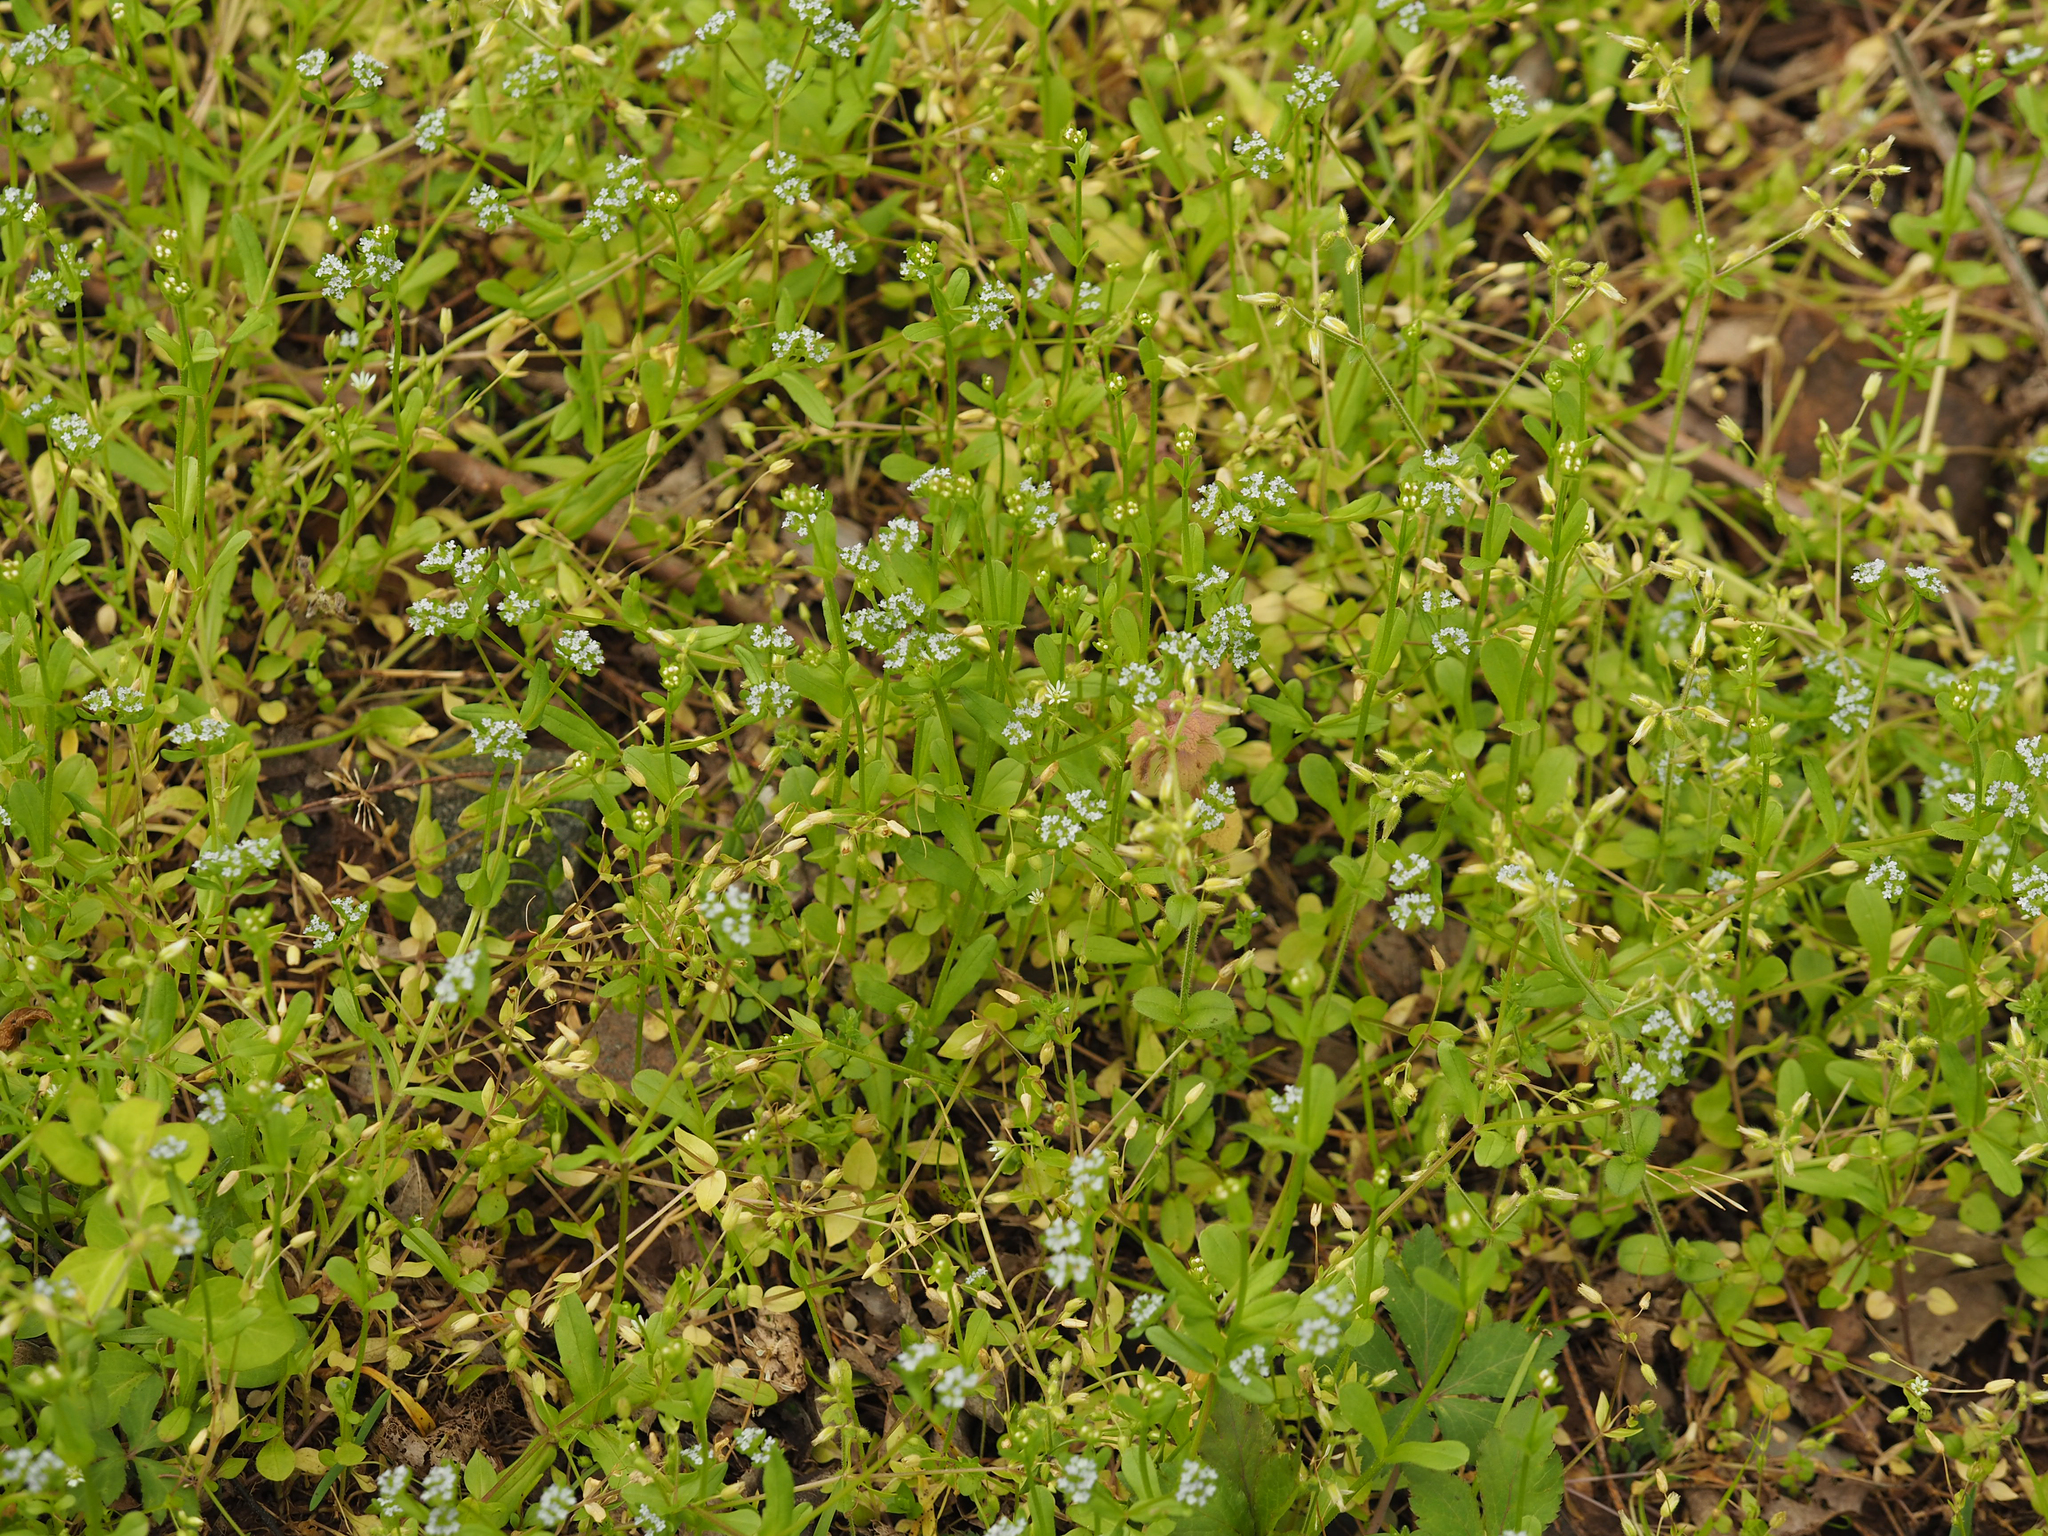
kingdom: Plantae
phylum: Tracheophyta
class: Magnoliopsida
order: Dipsacales
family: Caprifoliaceae
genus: Valerianella
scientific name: Valerianella locusta
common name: Common cornsalad
